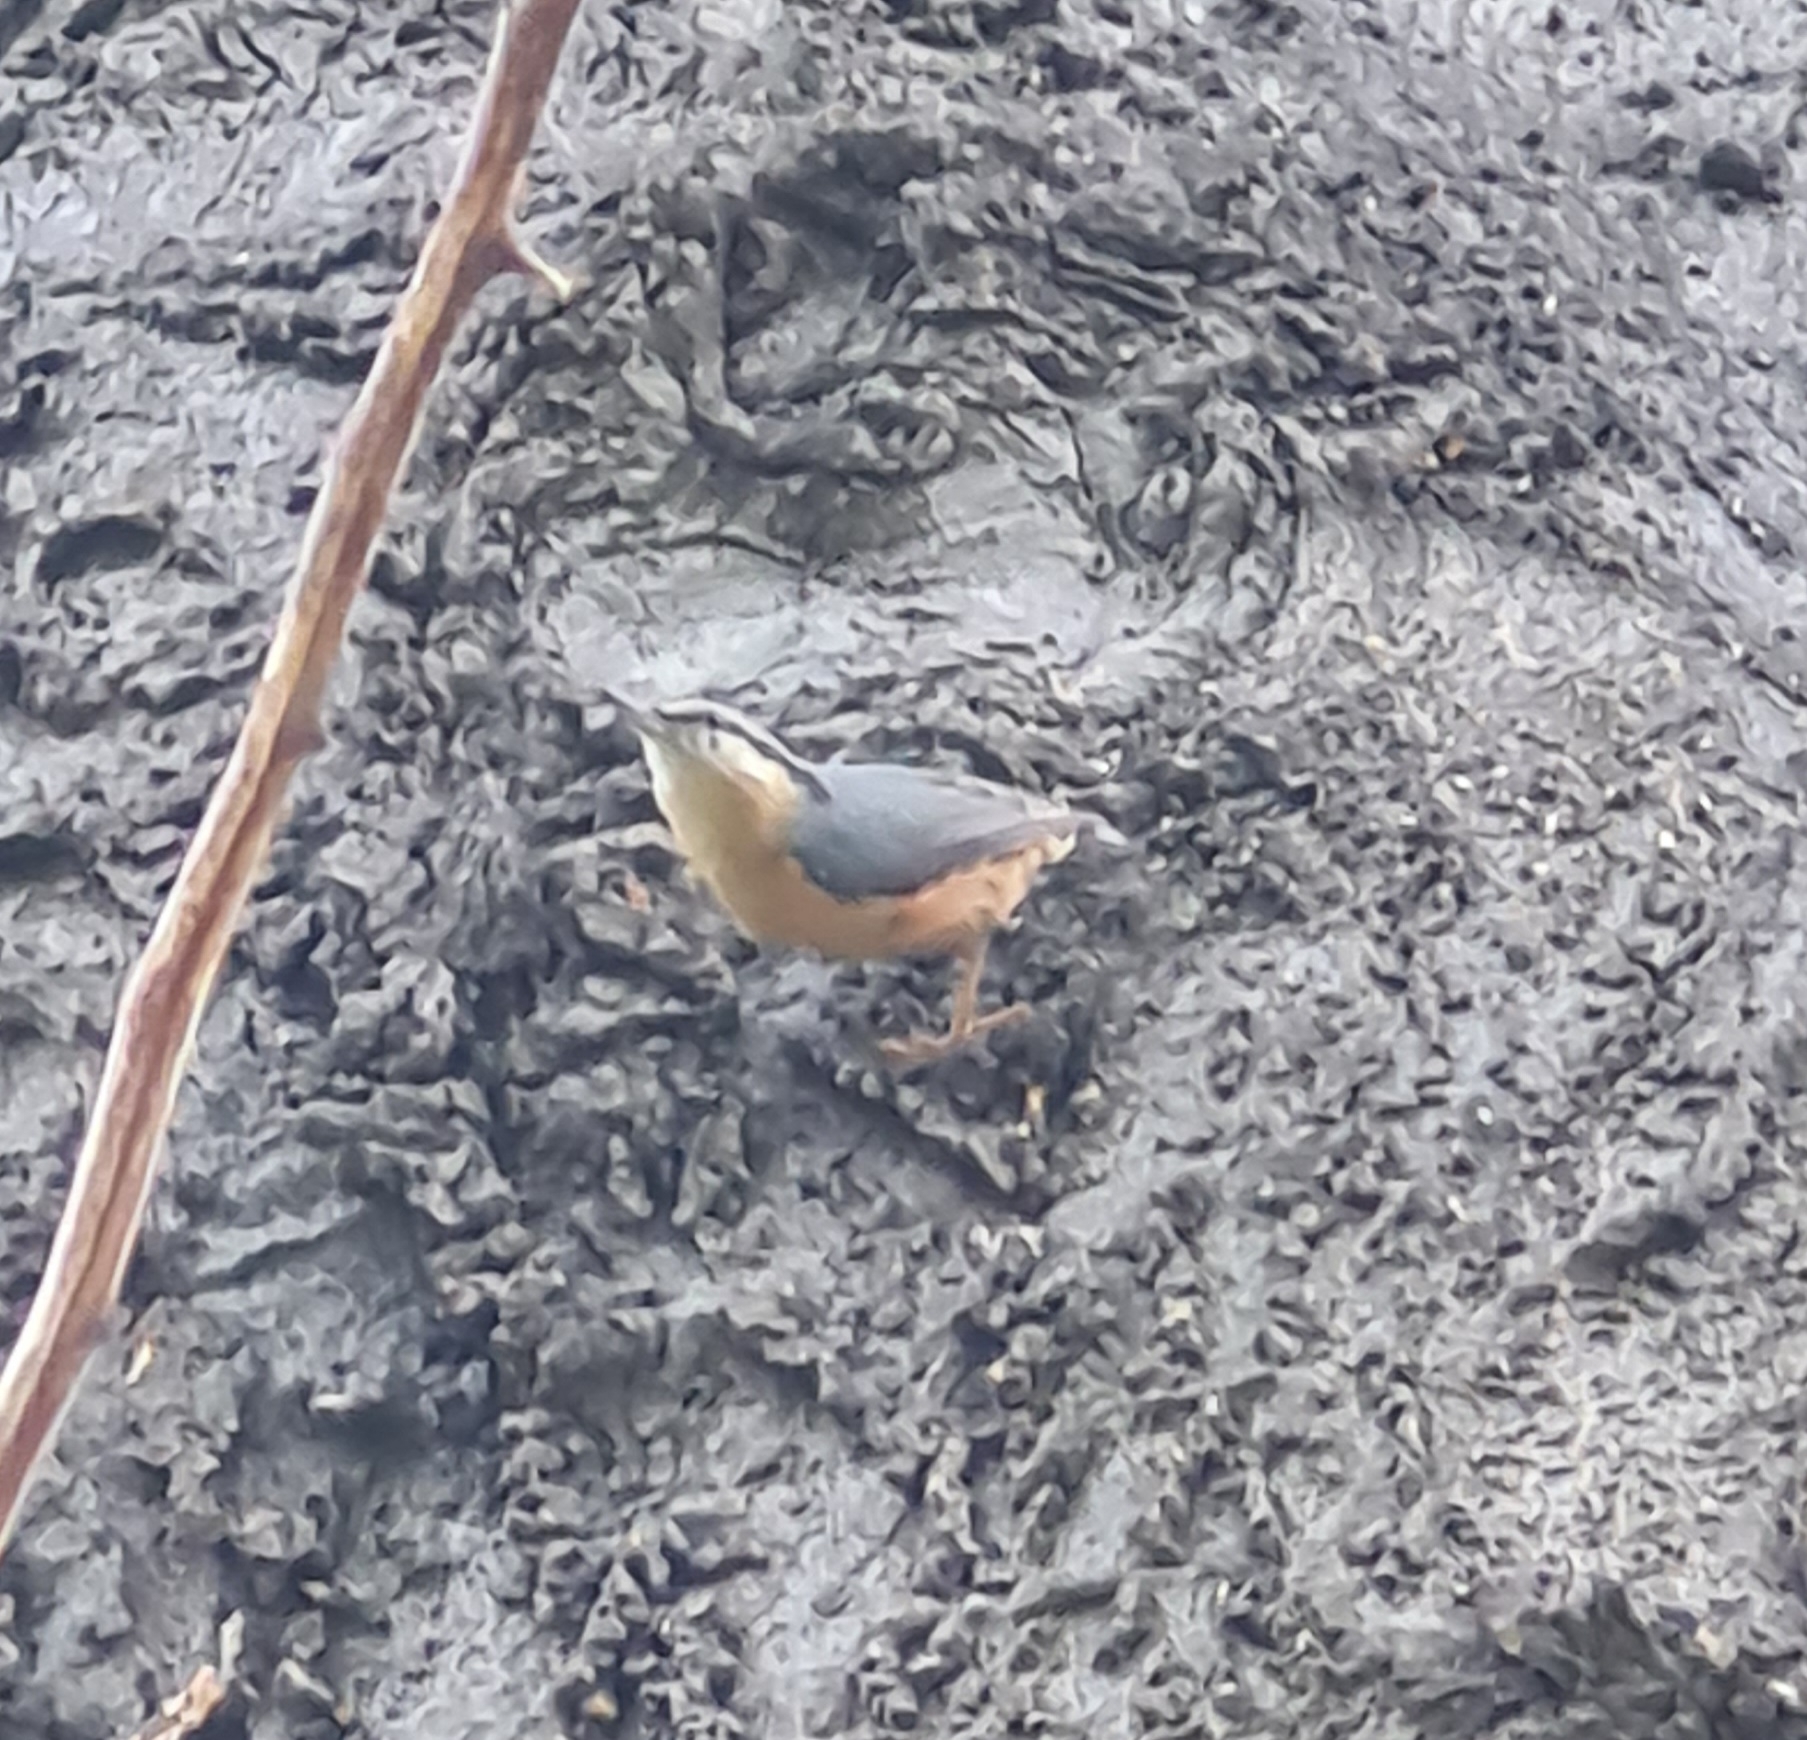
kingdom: Animalia
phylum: Chordata
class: Aves
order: Passeriformes
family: Sittidae
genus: Sitta
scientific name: Sitta europaea
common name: Eurasian nuthatch
